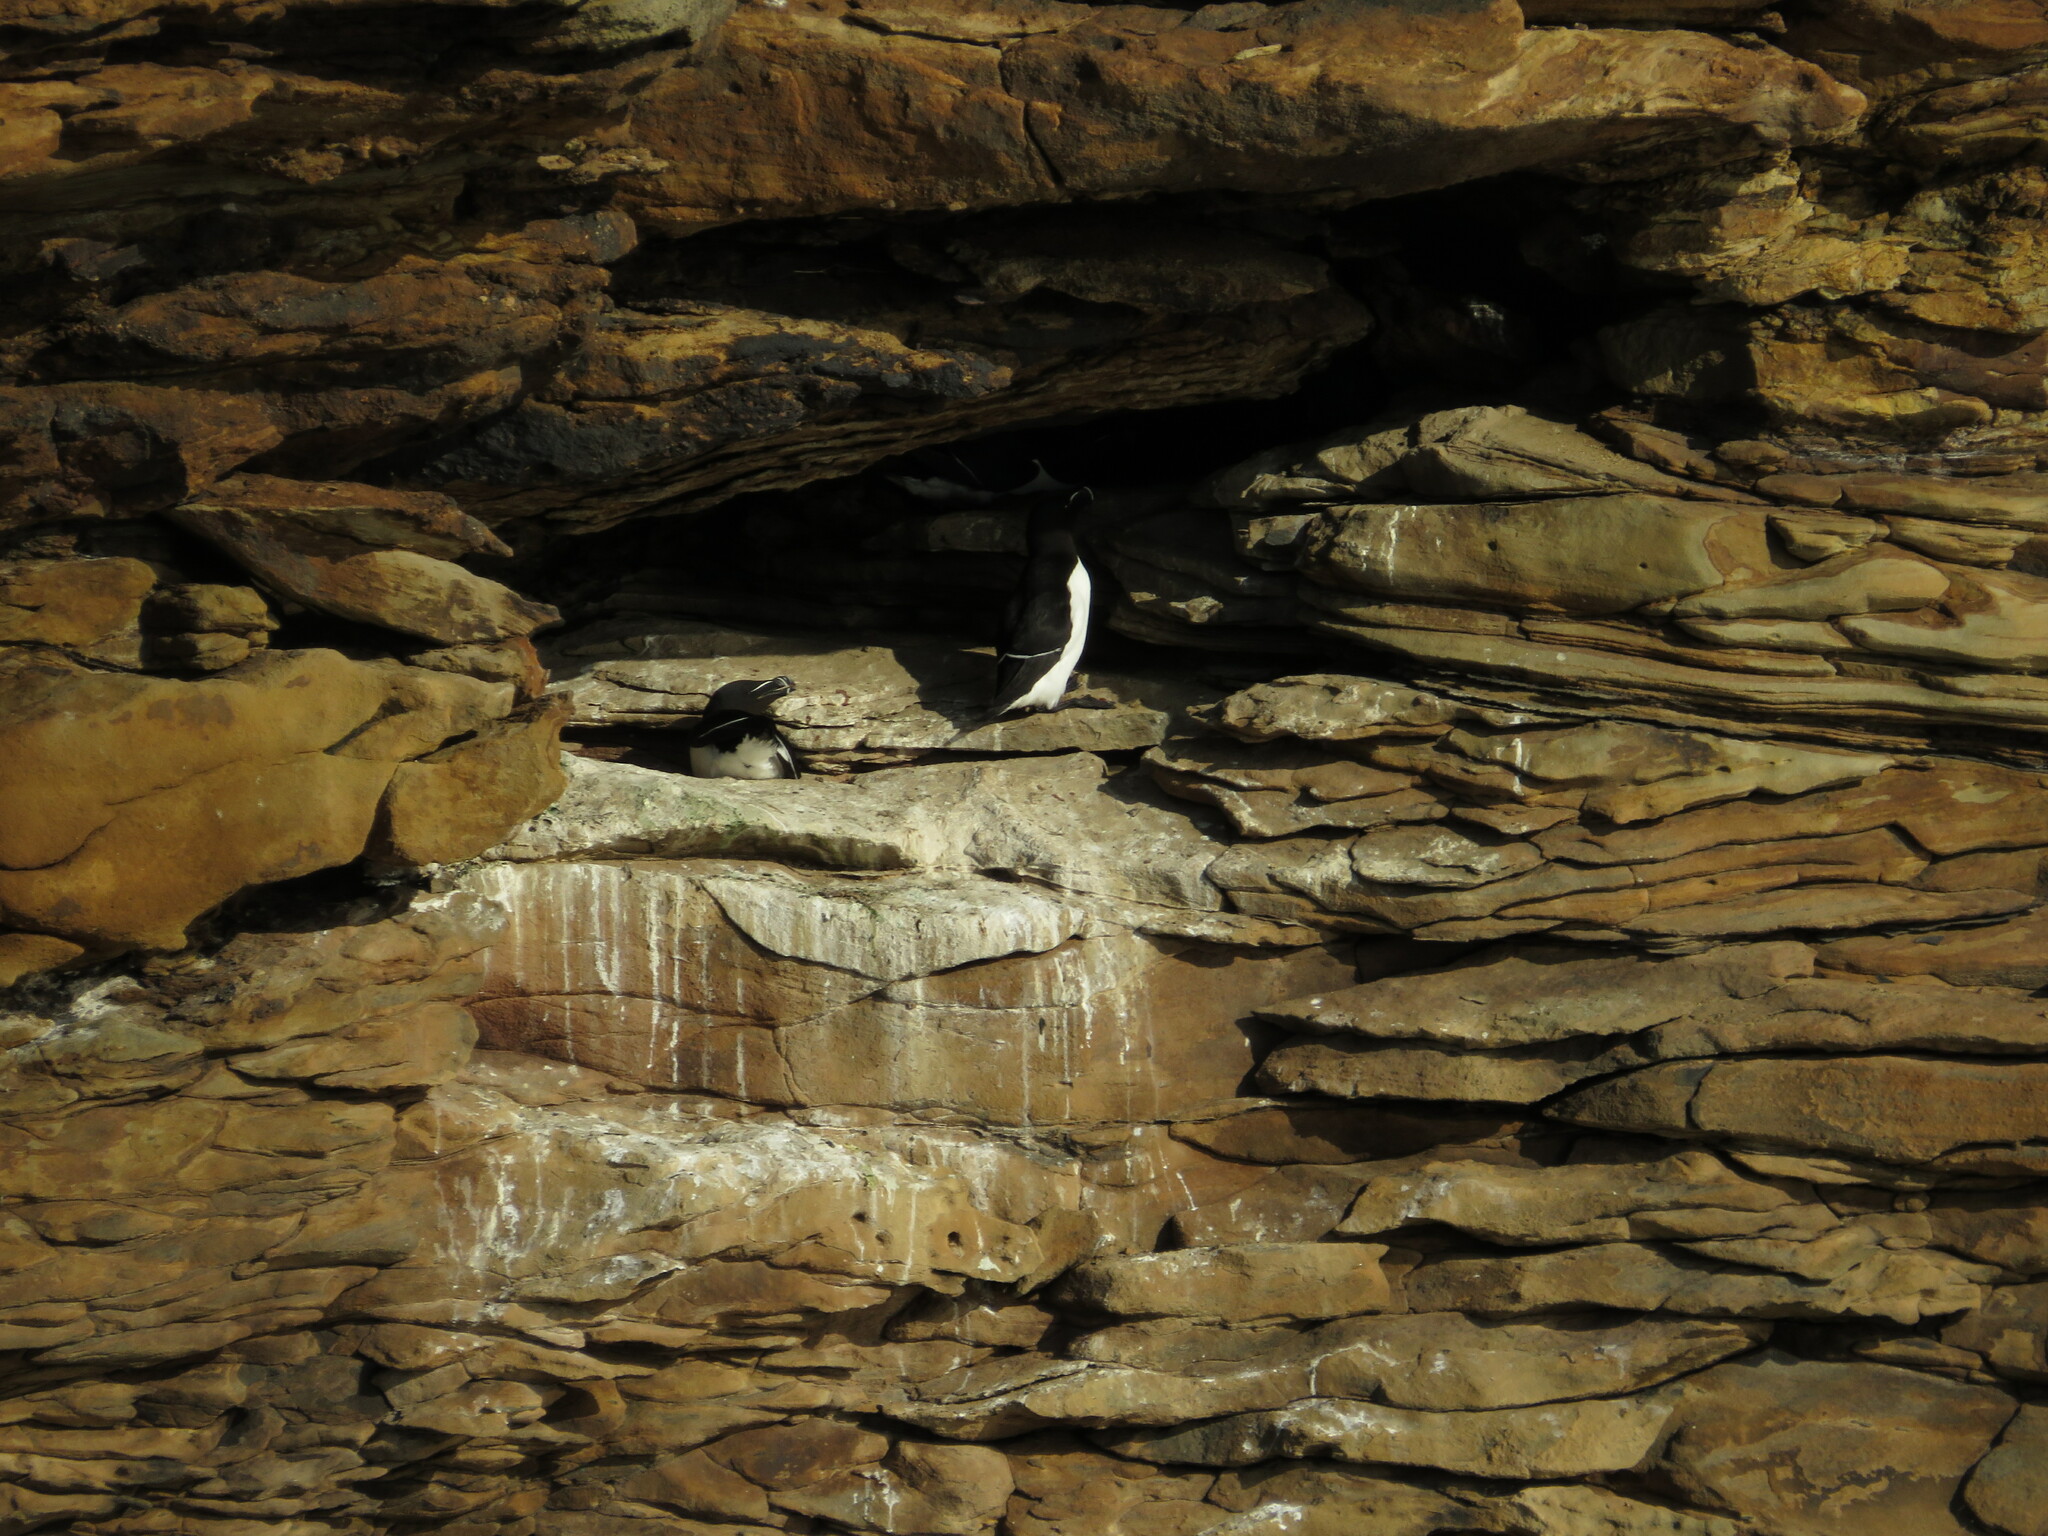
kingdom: Animalia
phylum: Chordata
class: Aves
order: Charadriiformes
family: Alcidae
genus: Alca
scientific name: Alca torda
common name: Razorbill
